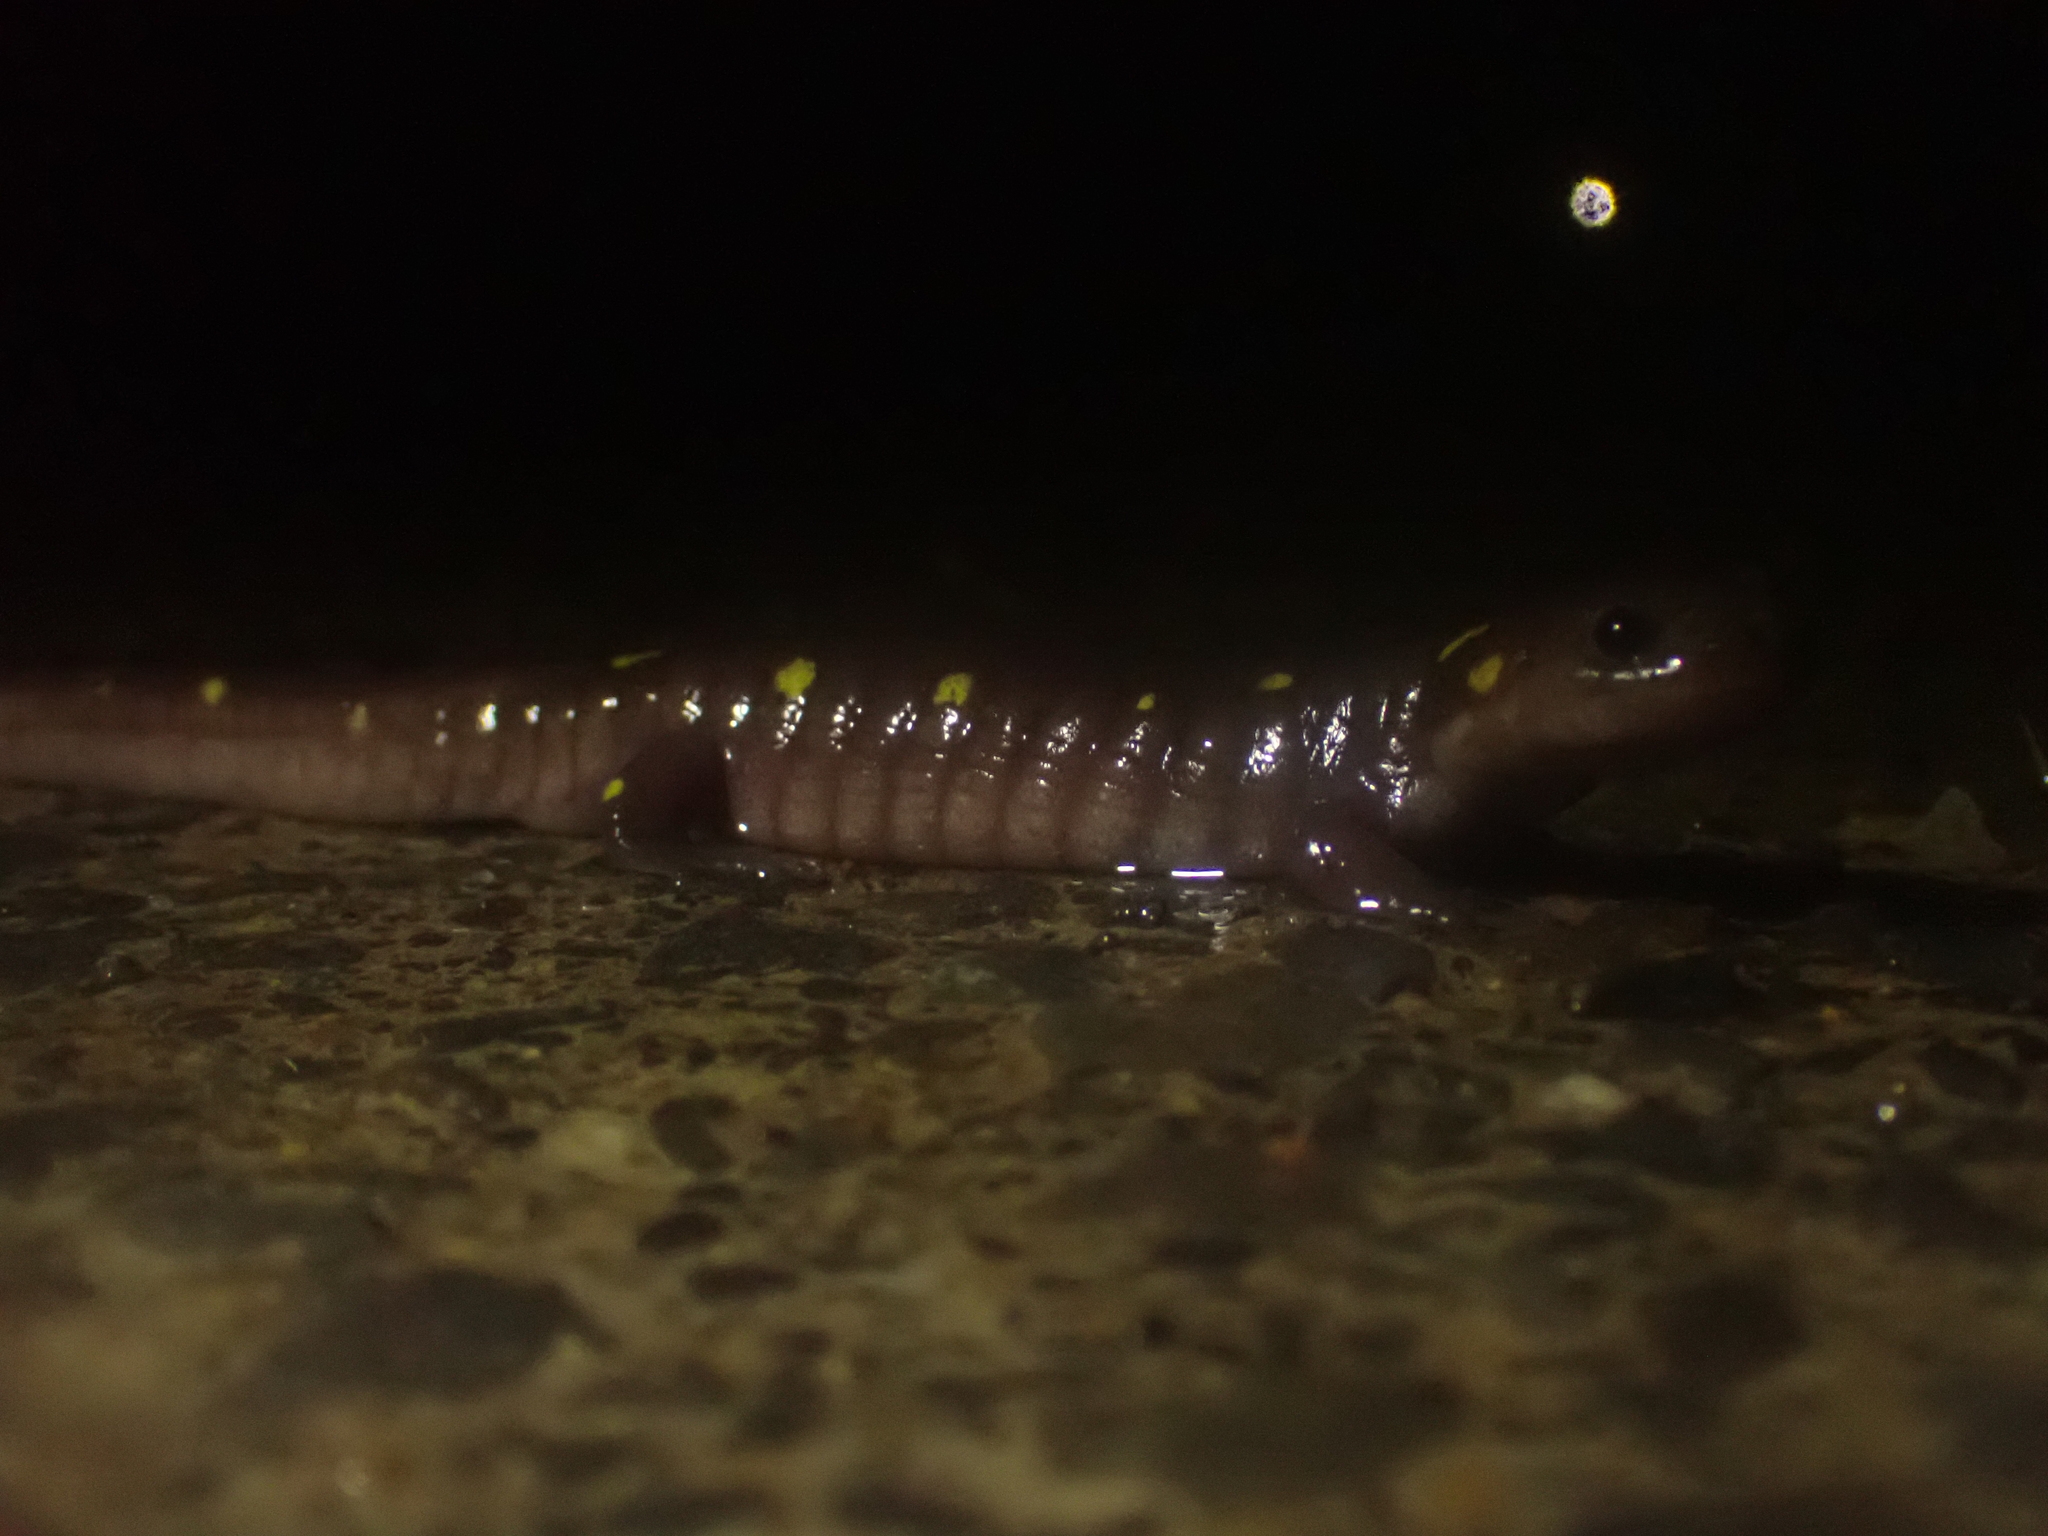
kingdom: Animalia
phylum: Chordata
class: Amphibia
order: Caudata
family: Ambystomatidae
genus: Ambystoma
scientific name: Ambystoma maculatum
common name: Spotted salamander
